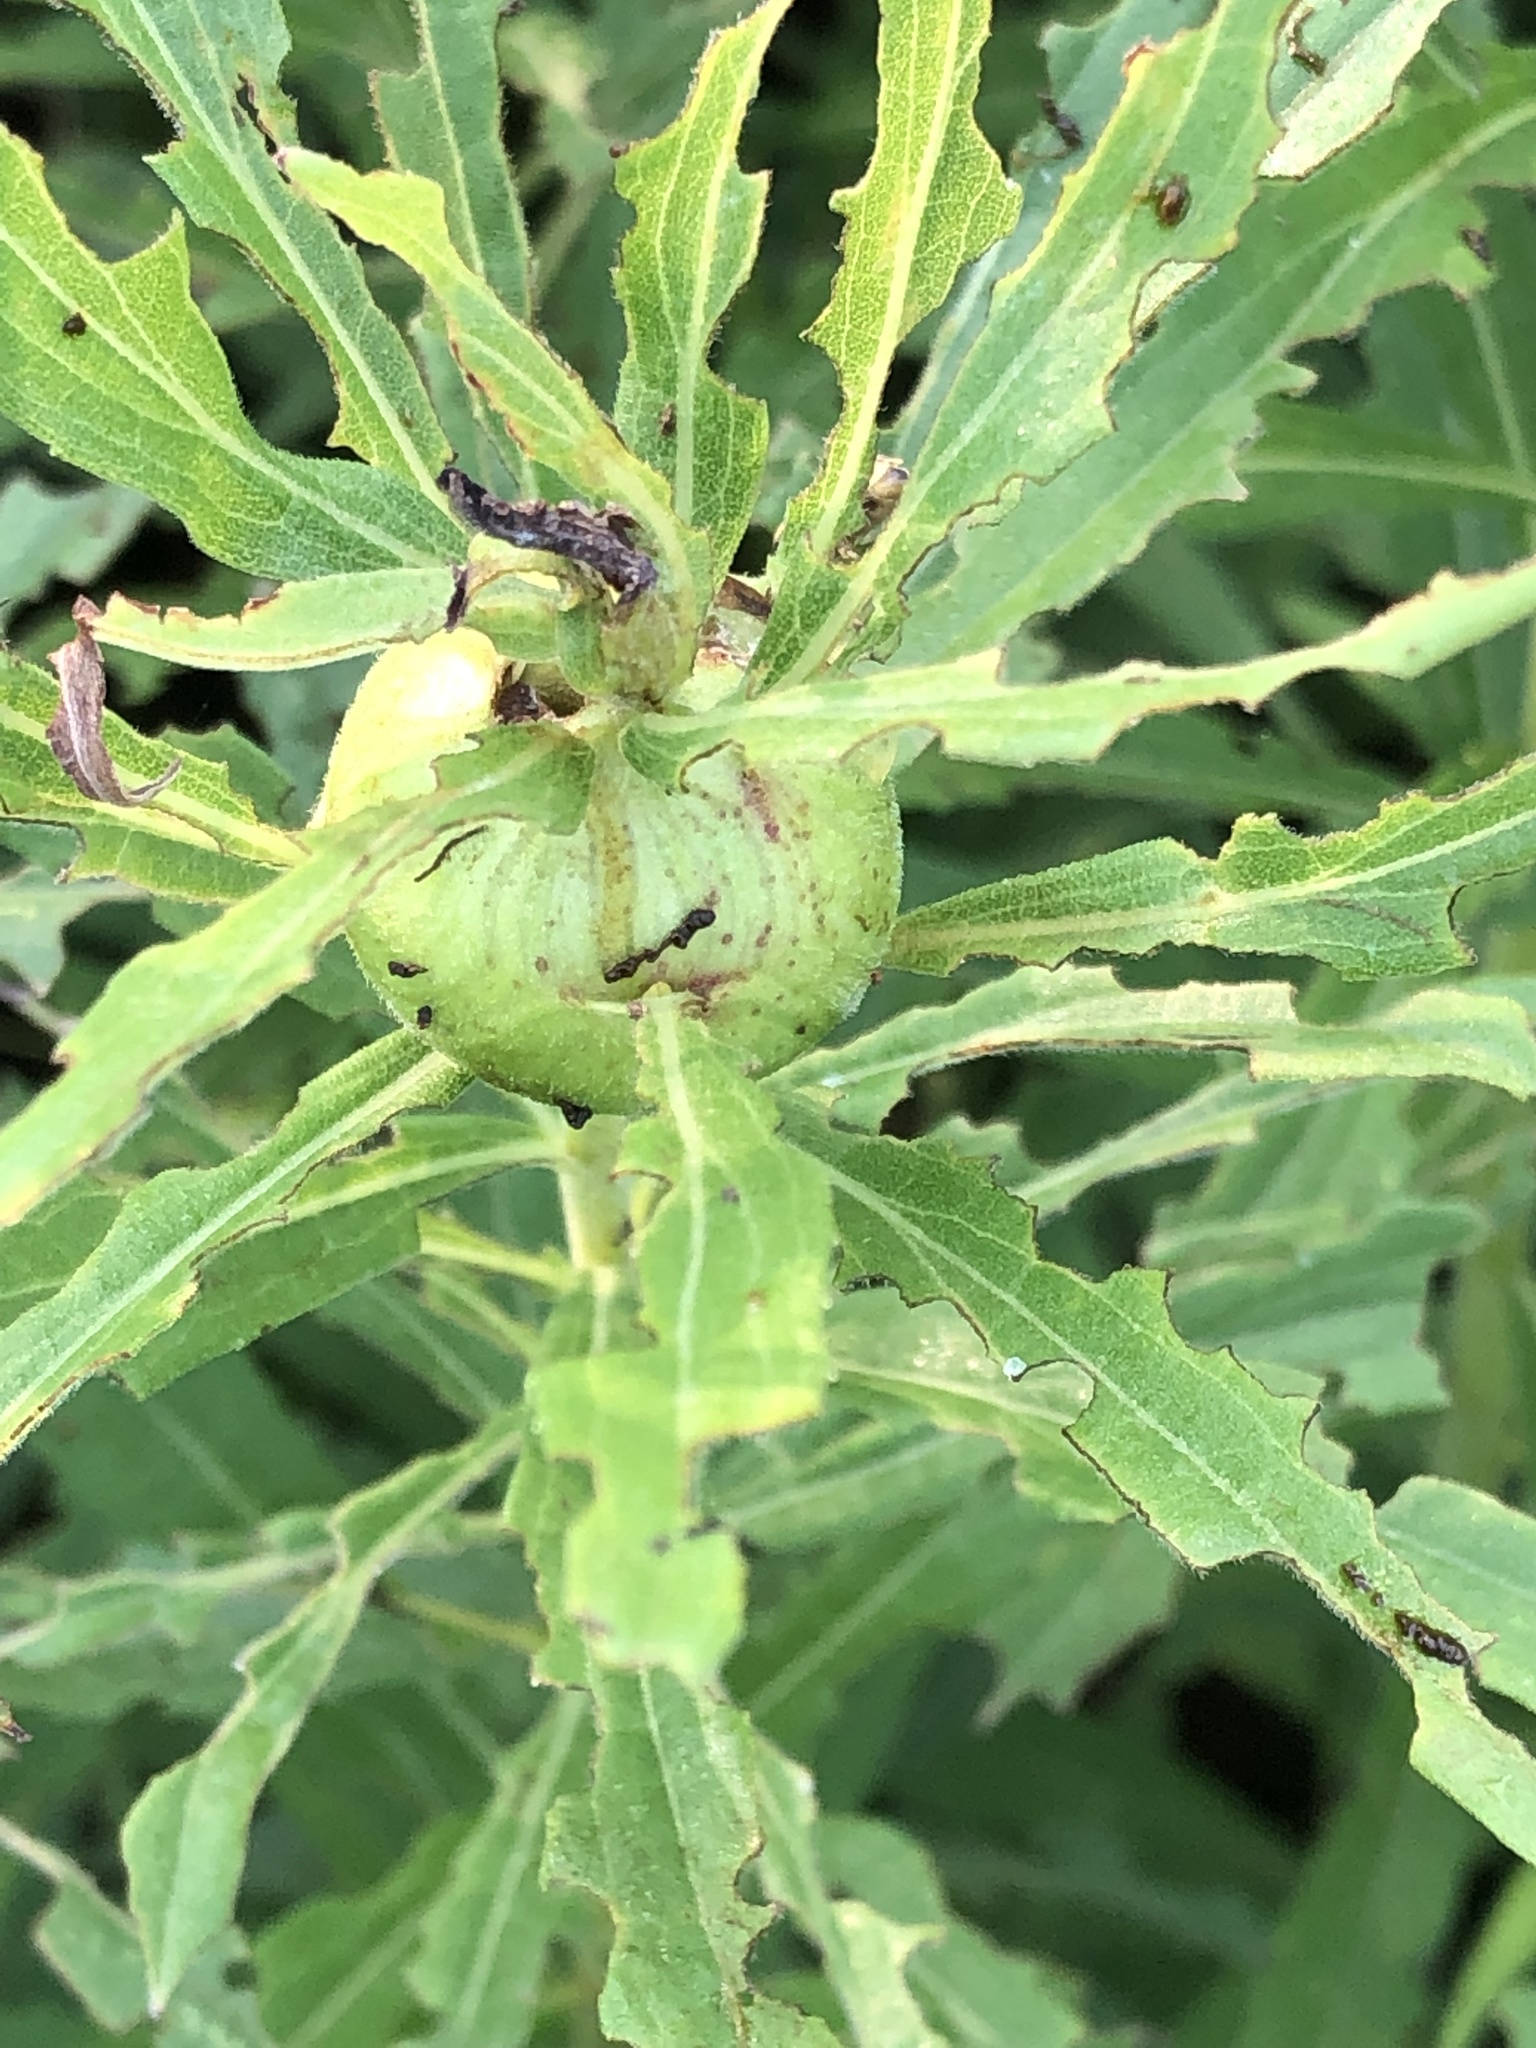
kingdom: Animalia
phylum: Arthropoda
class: Insecta
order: Diptera
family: Tephritidae
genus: Eurosta
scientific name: Eurosta solidaginis
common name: Goldenrod gall fly
